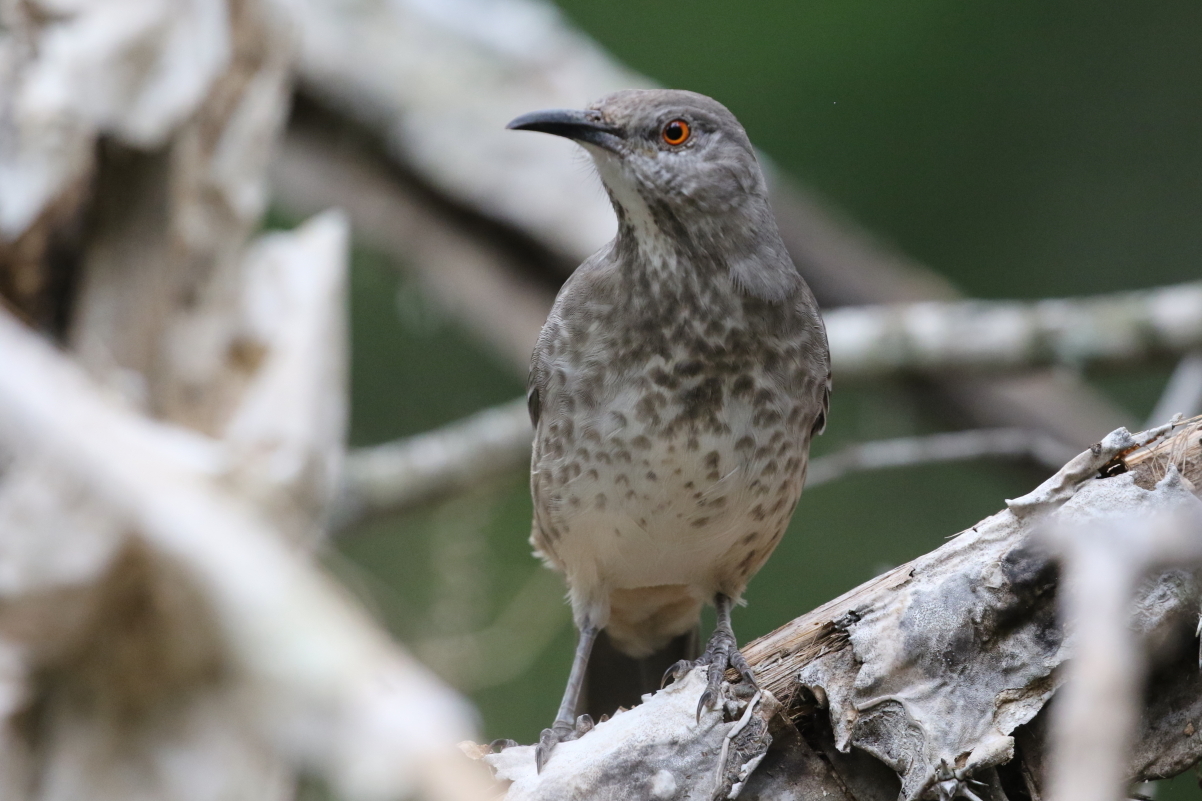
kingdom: Animalia
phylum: Chordata
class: Aves
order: Passeriformes
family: Mimidae
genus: Toxostoma
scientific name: Toxostoma curvirostre
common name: Curve-billed thrasher
